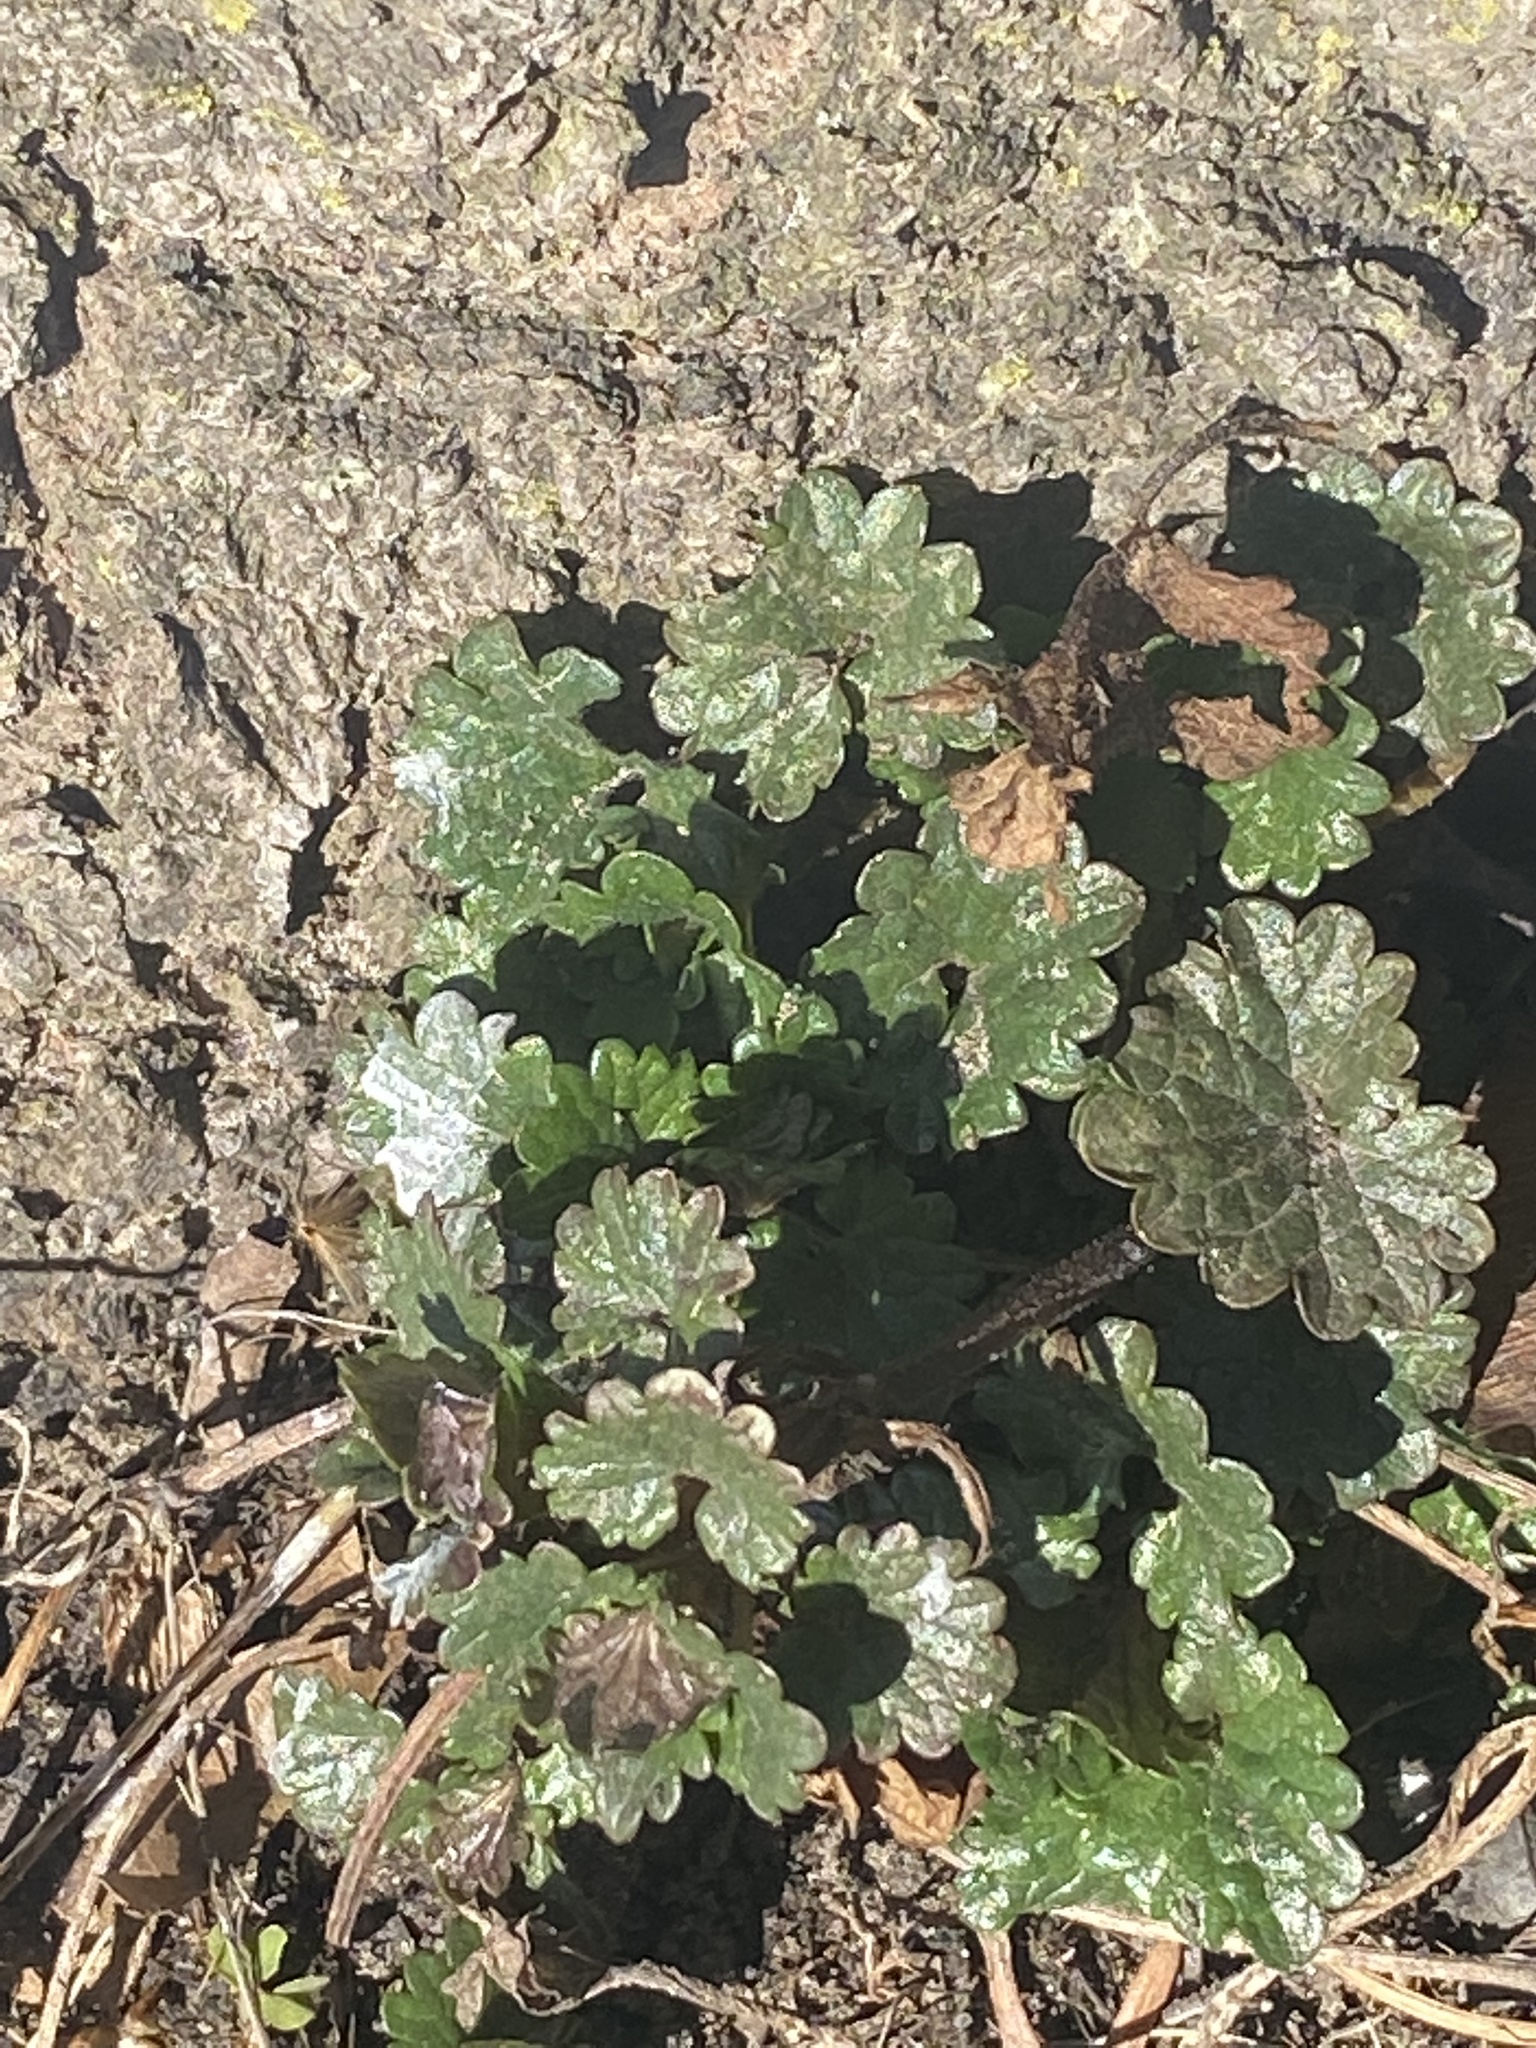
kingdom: Plantae
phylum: Tracheophyta
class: Magnoliopsida
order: Lamiales
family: Lamiaceae
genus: Glechoma
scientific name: Glechoma hederacea
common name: Ground ivy
